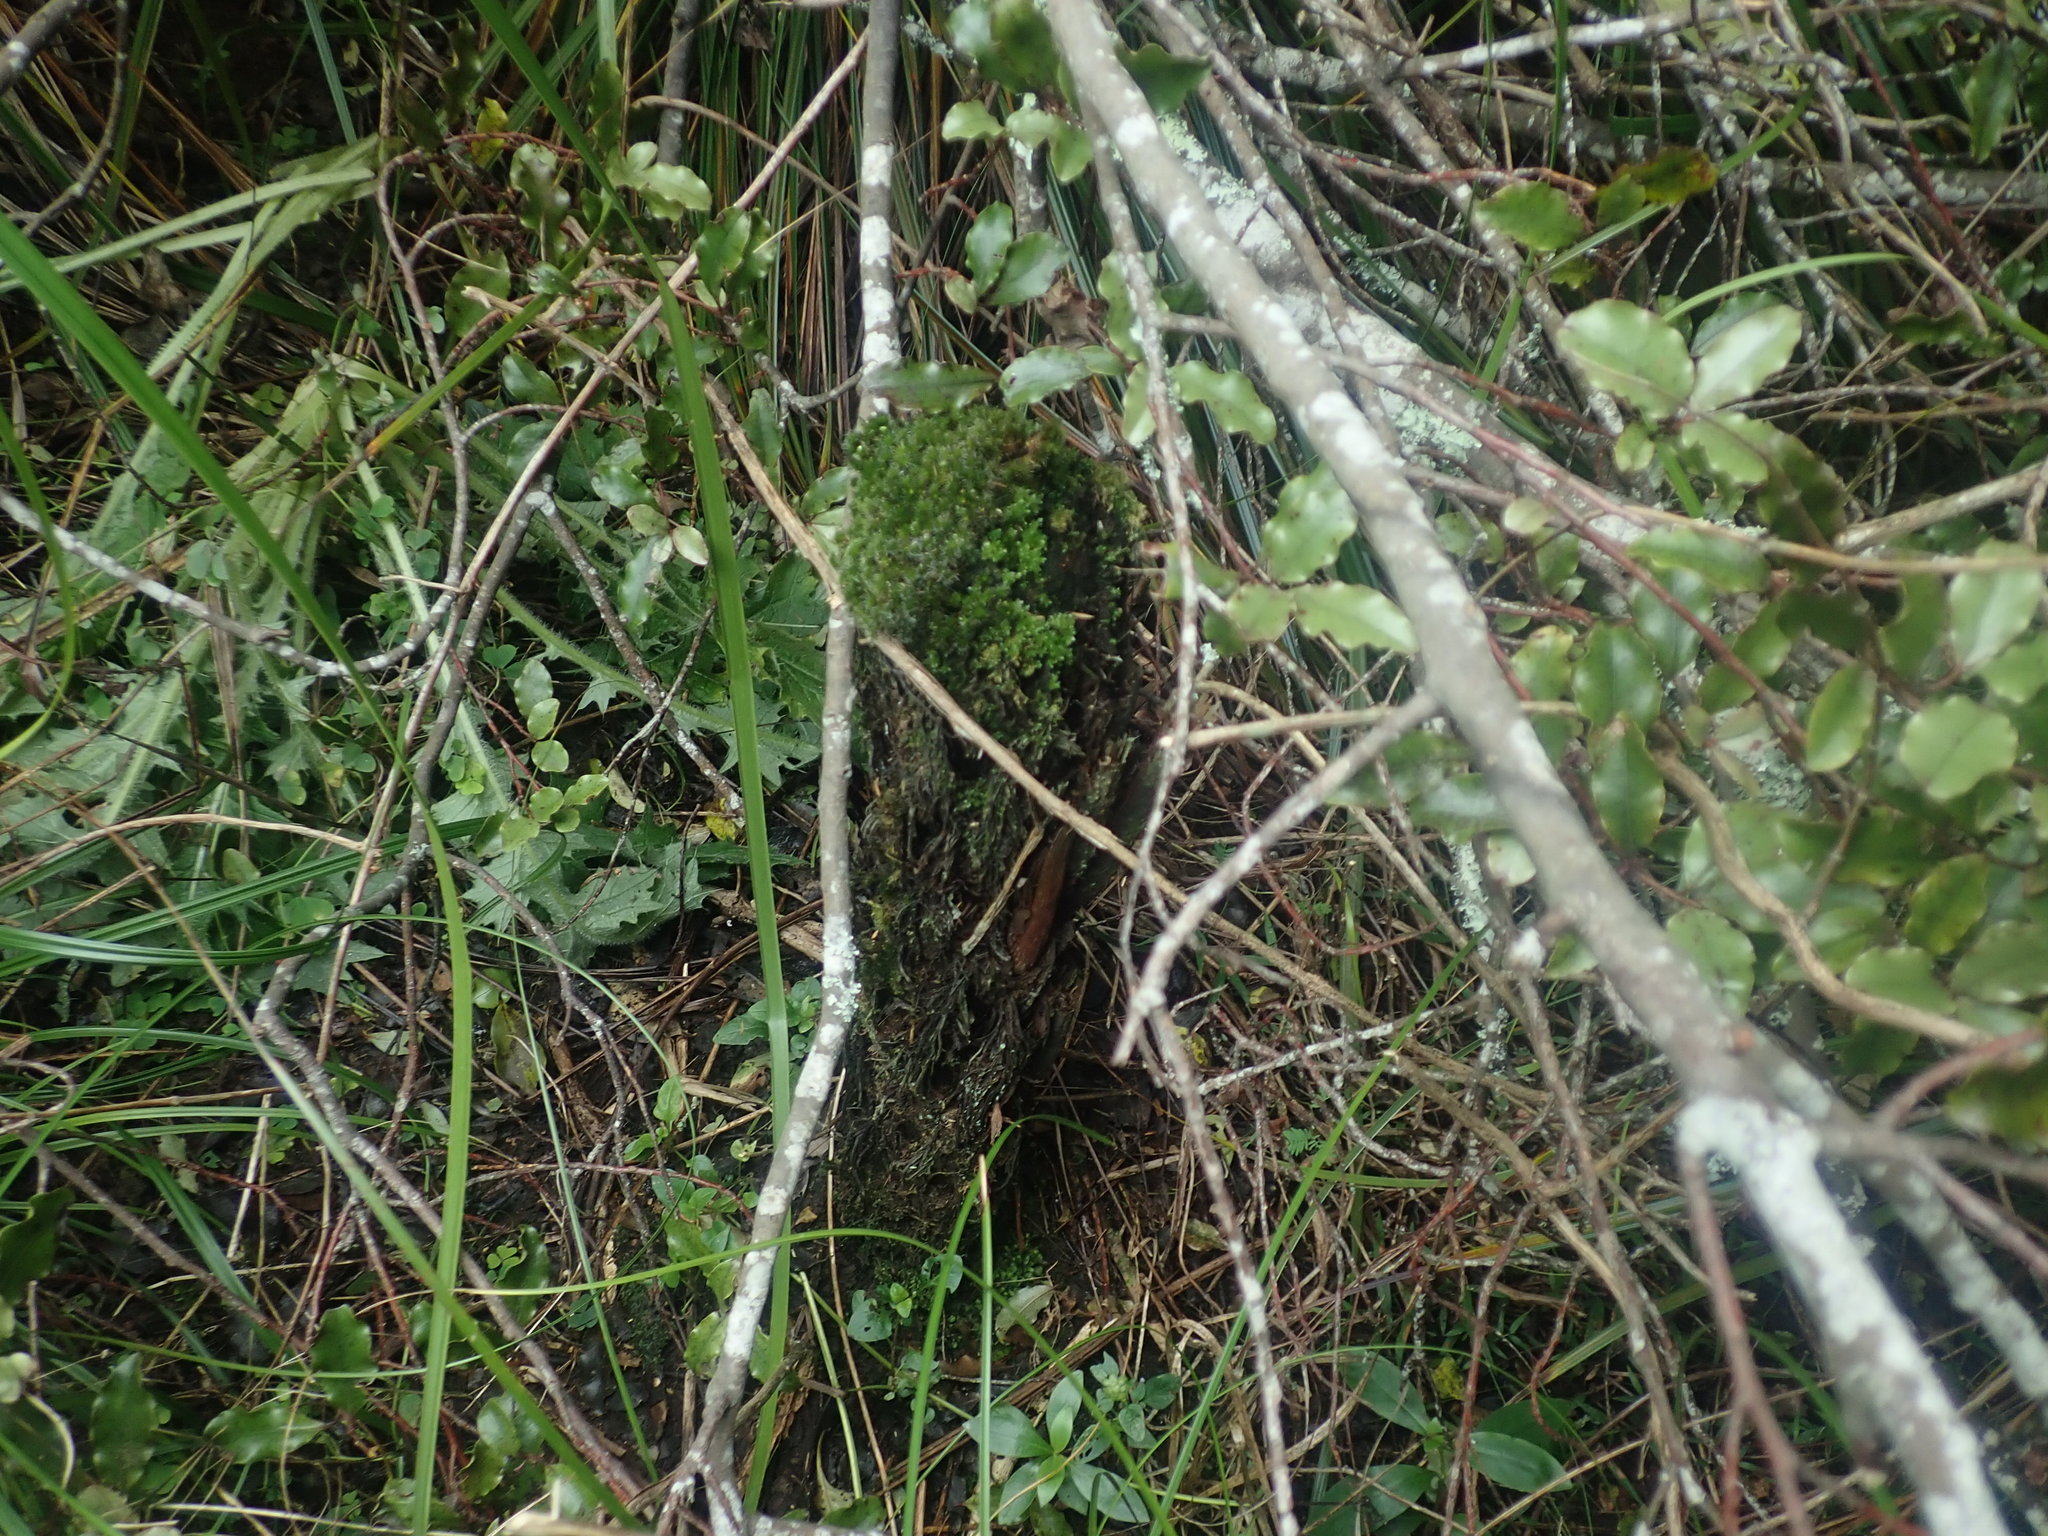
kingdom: Plantae
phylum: Tracheophyta
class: Magnoliopsida
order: Ericales
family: Primulaceae
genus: Myrsine
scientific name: Myrsine australis
